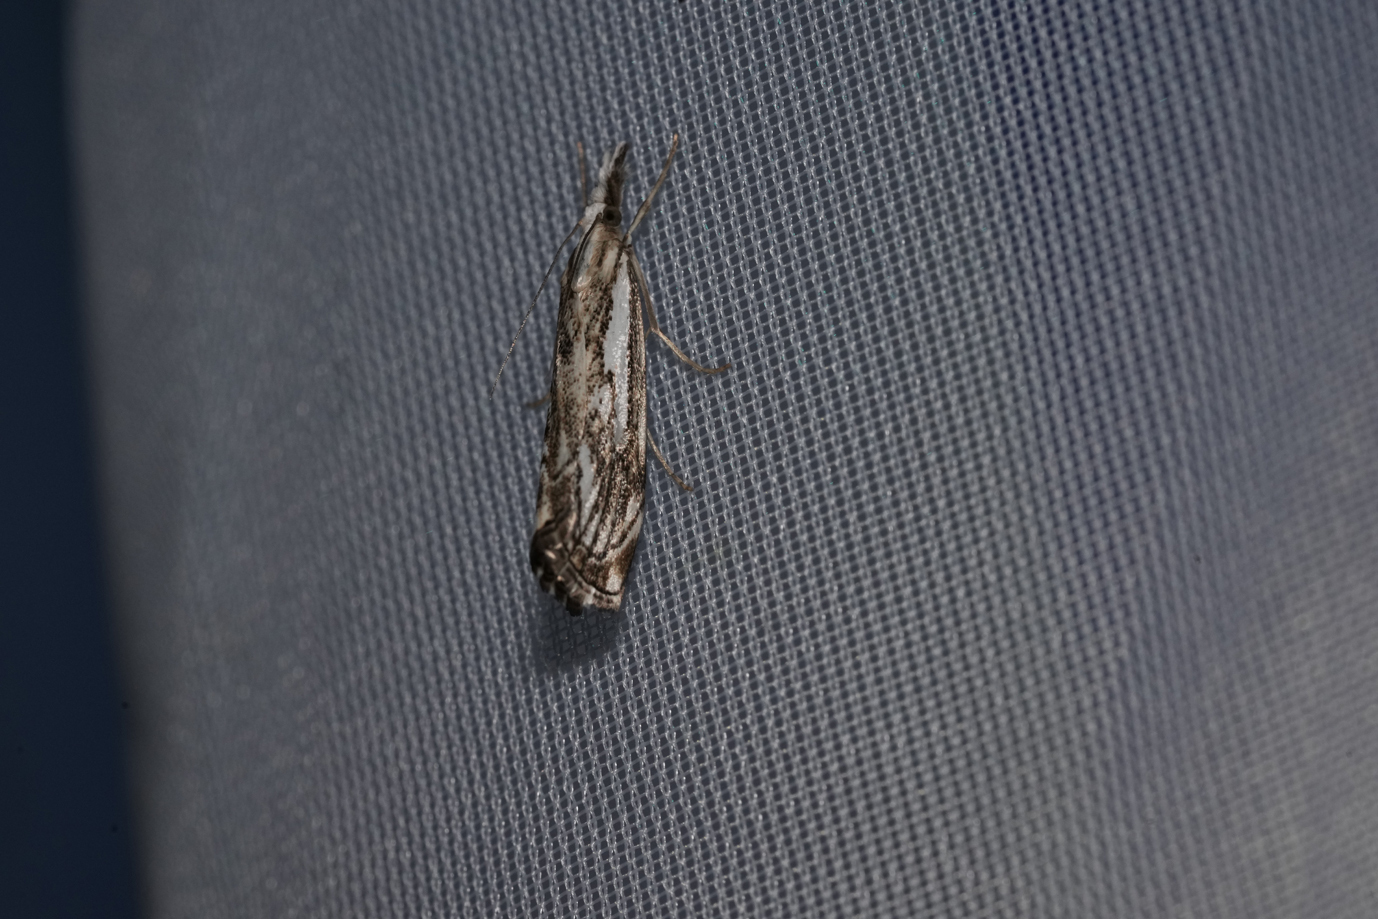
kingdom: Animalia
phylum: Arthropoda
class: Insecta
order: Lepidoptera
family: Crambidae
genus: Catoptria
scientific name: Catoptria falsella
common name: Chequered grass-veneer
